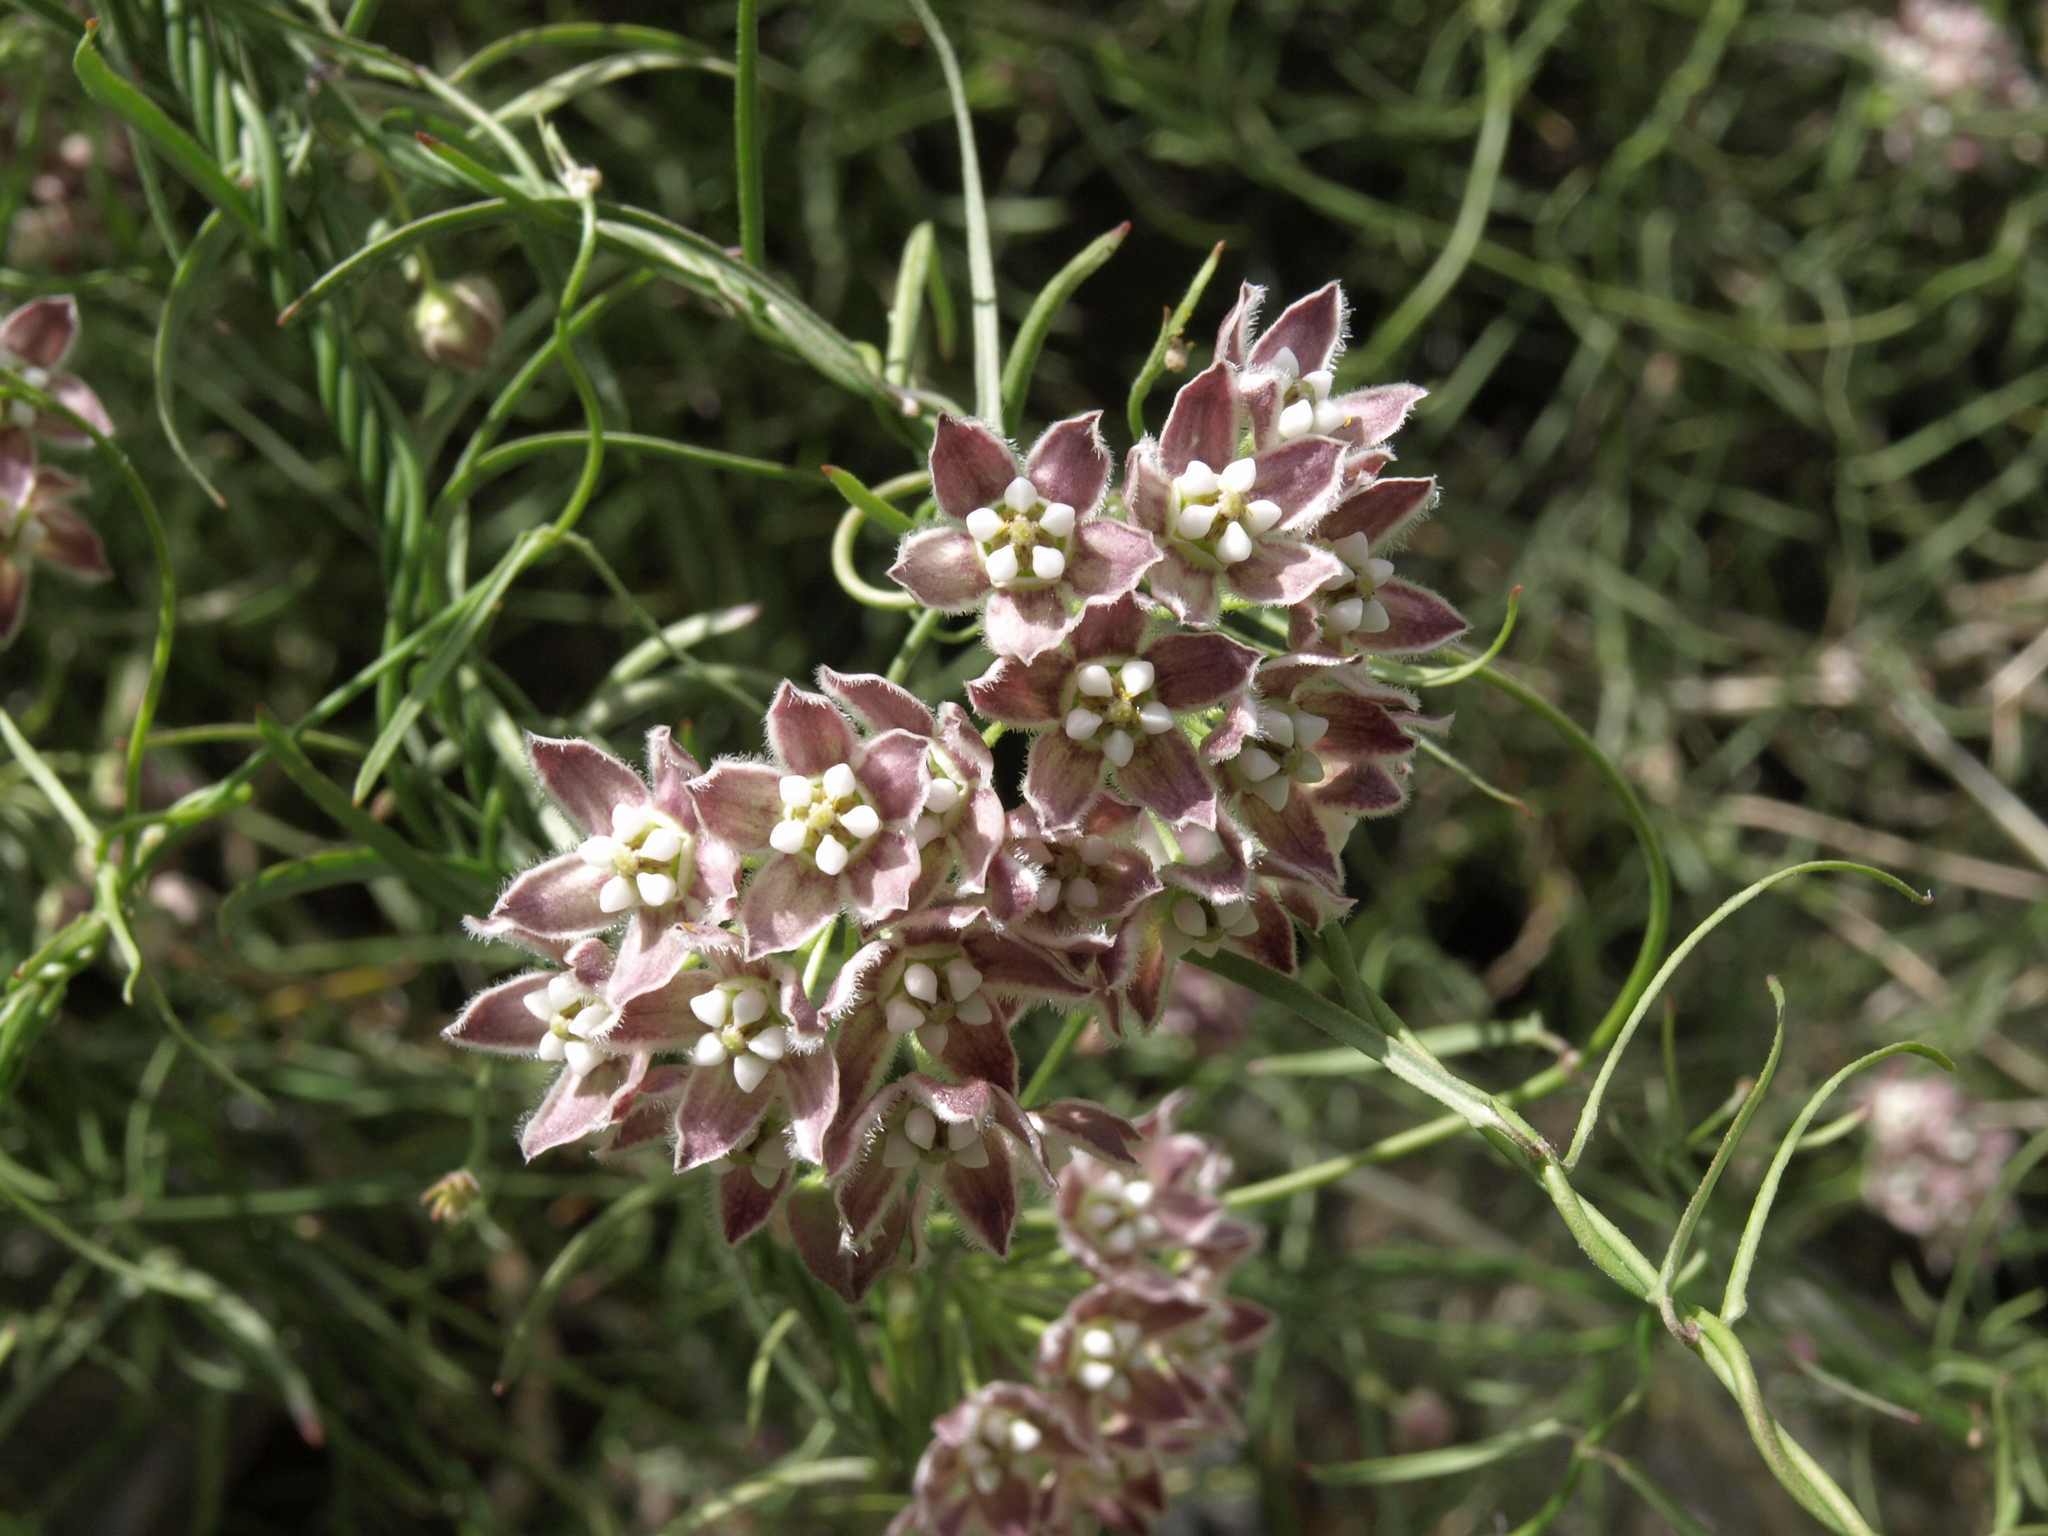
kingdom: Plantae
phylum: Tracheophyta
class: Magnoliopsida
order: Gentianales
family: Apocynaceae
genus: Funastrum
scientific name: Funastrum heterophyllum
